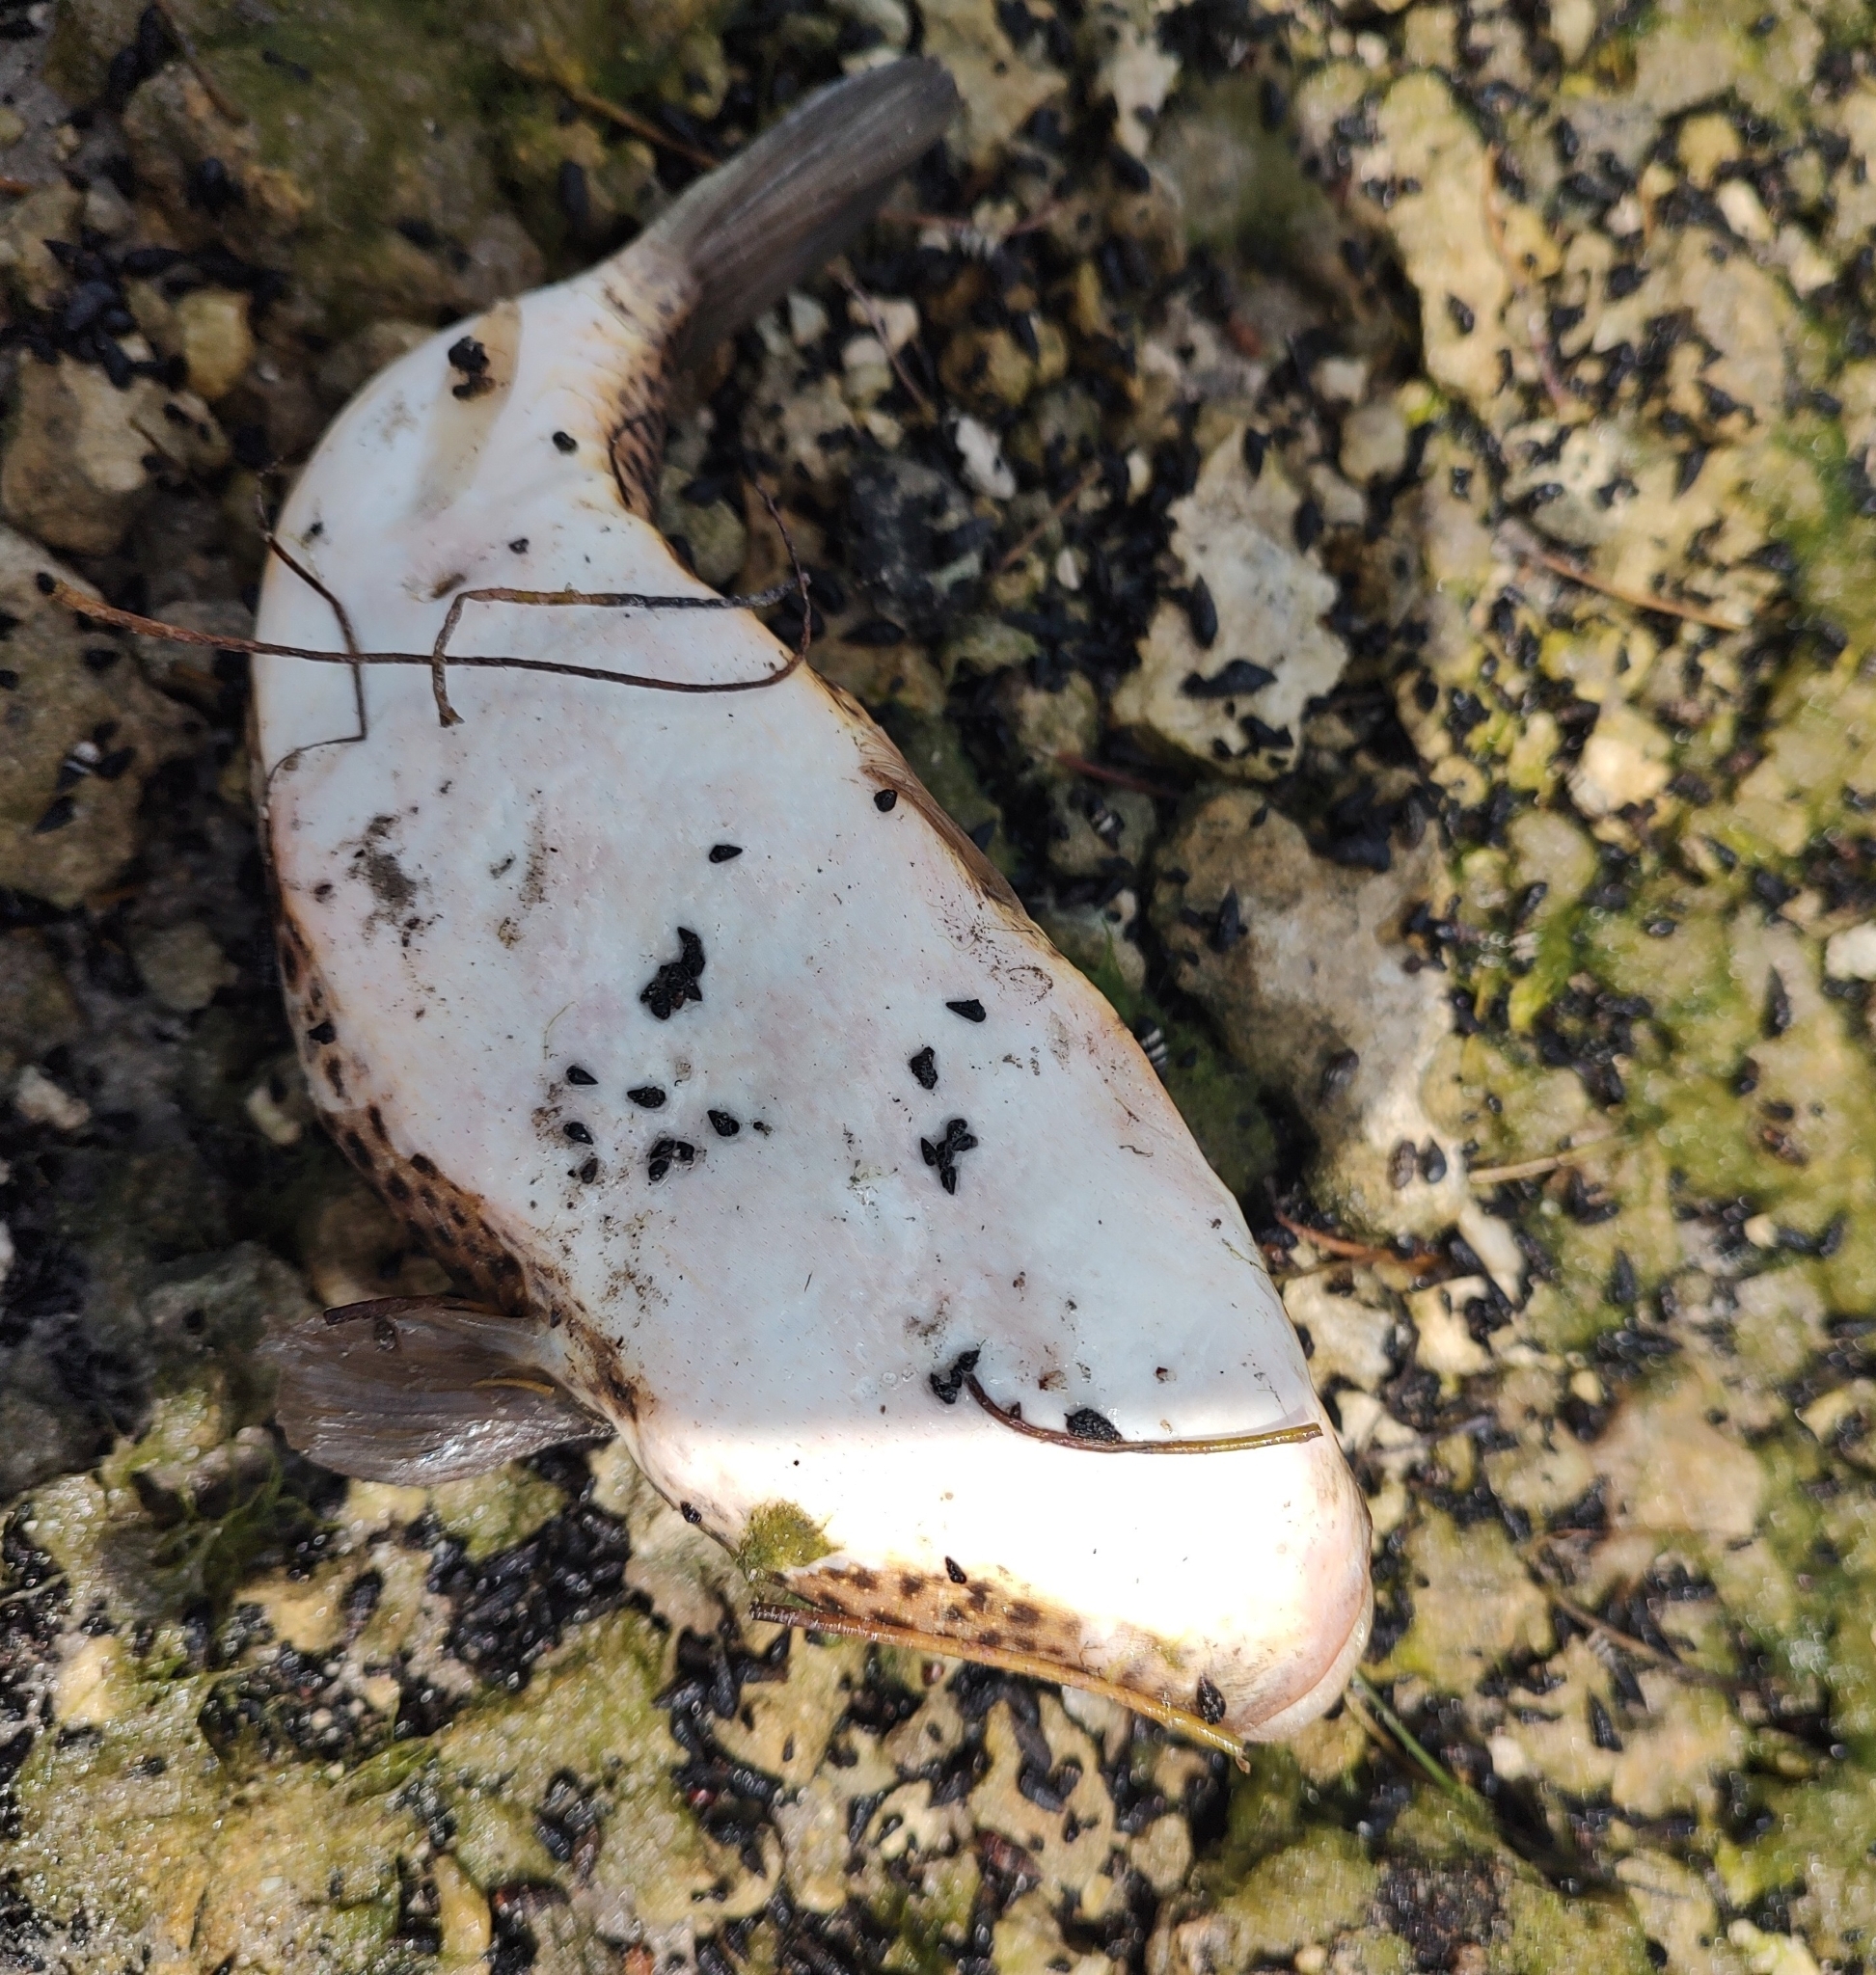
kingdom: Animalia
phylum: Chordata
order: Tetraodontiformes
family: Tetraodontidae
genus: Sphoeroides
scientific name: Sphoeroides testudineus
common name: Checkered puffer
